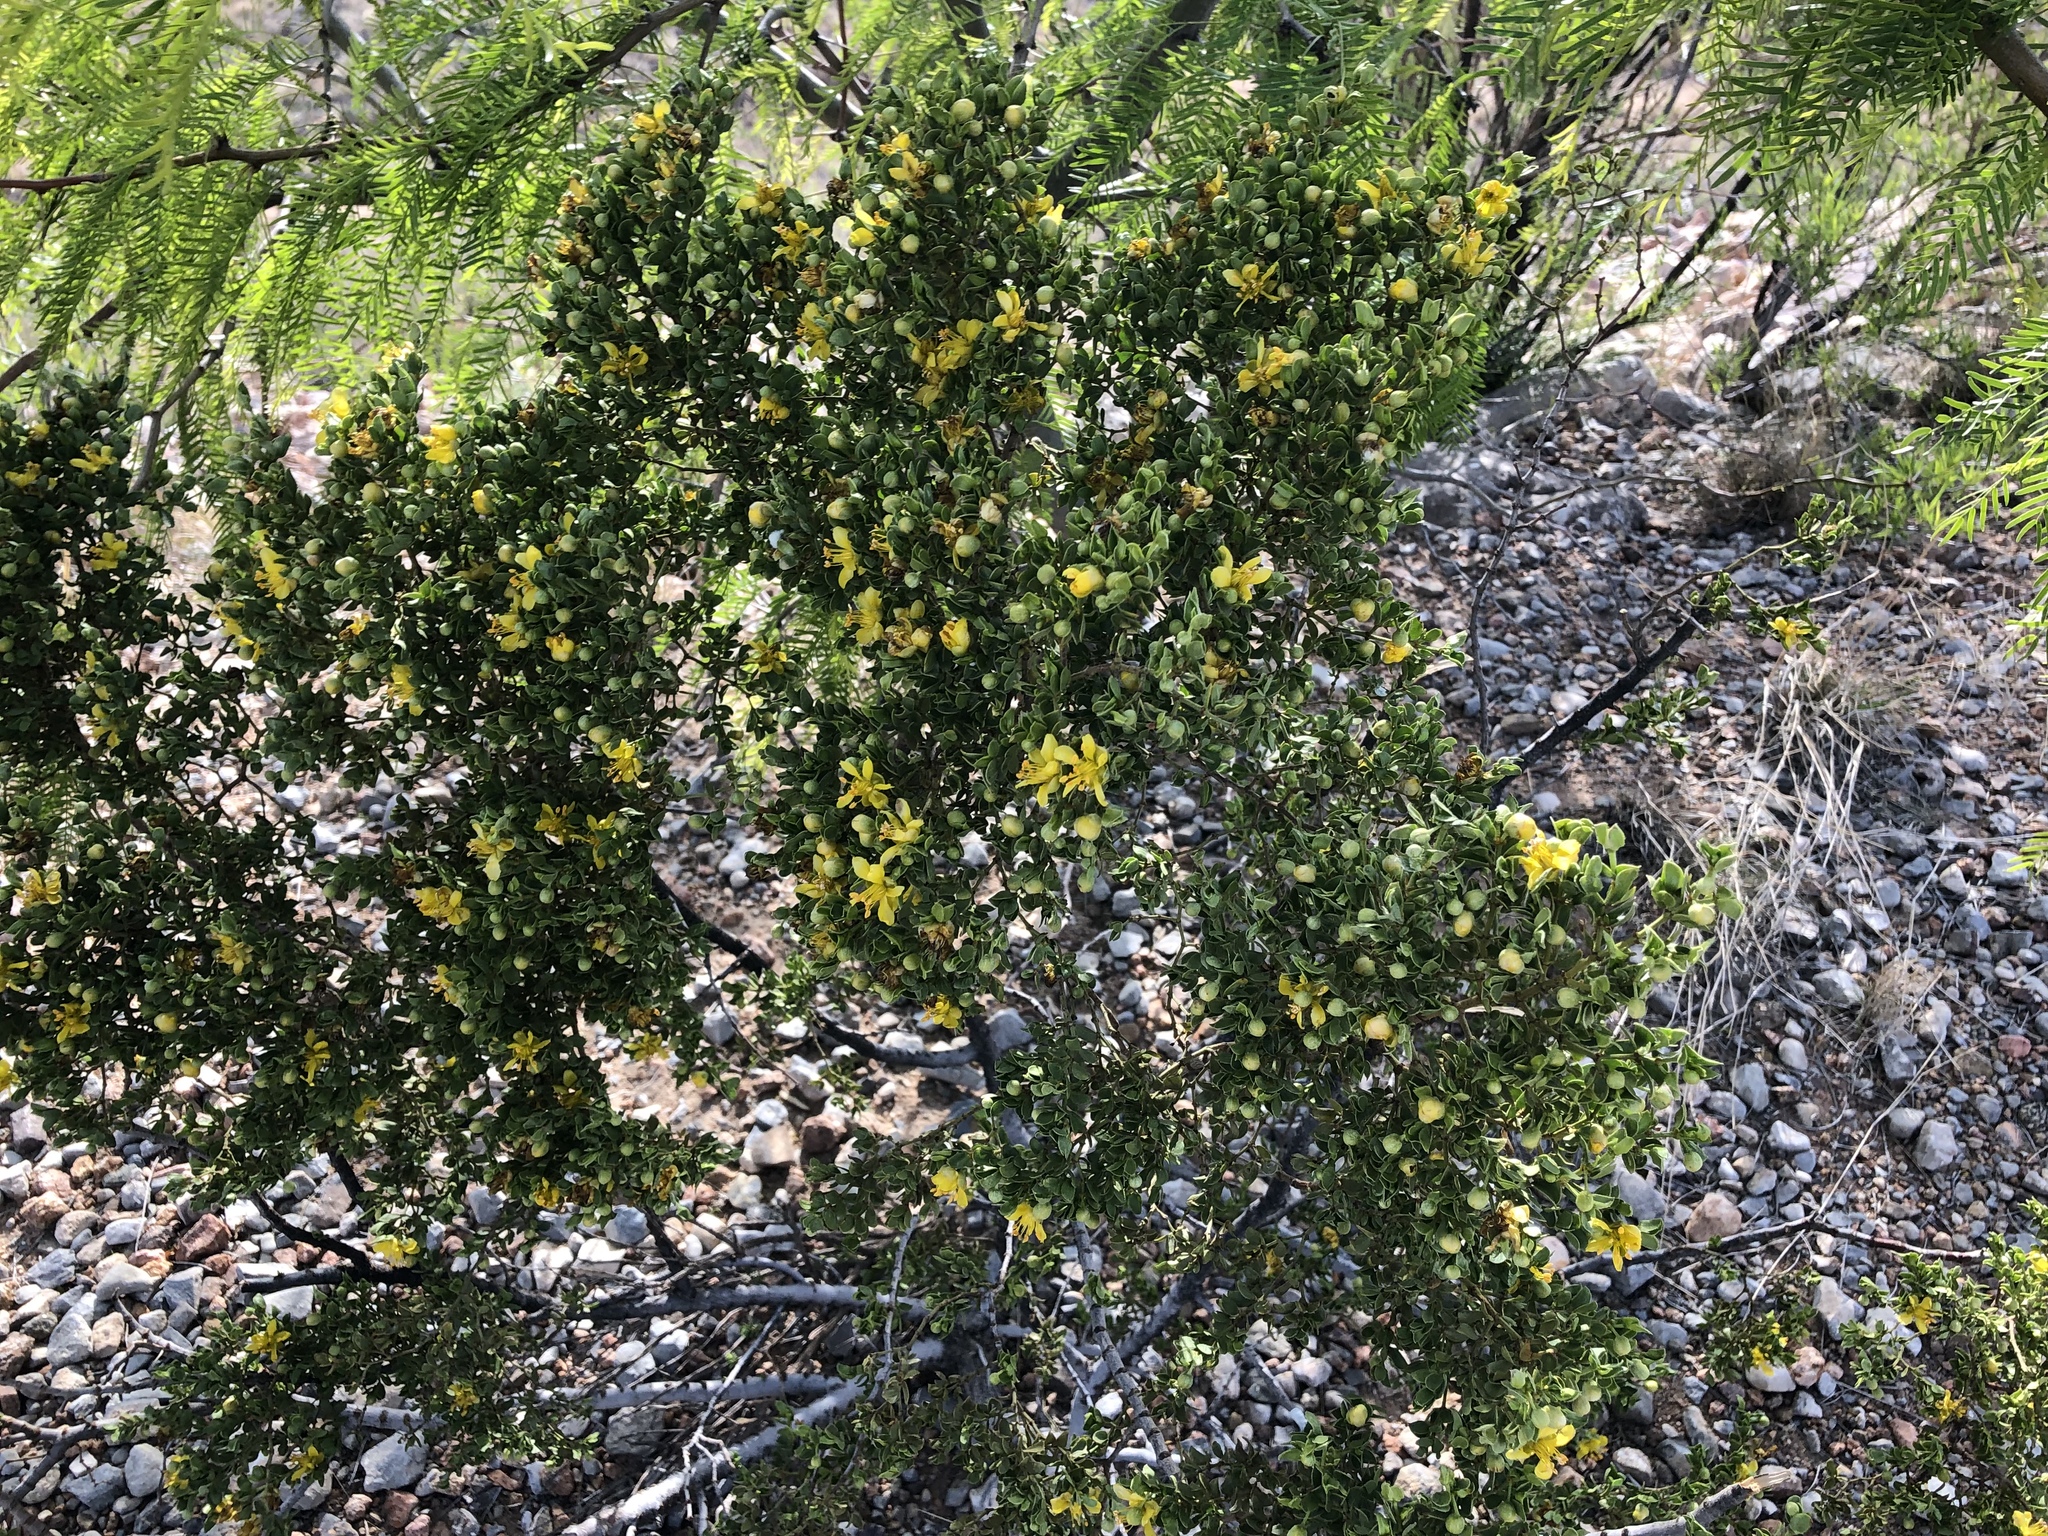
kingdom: Plantae
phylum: Tracheophyta
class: Magnoliopsida
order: Zygophyllales
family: Zygophyllaceae
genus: Larrea
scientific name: Larrea tridentata
